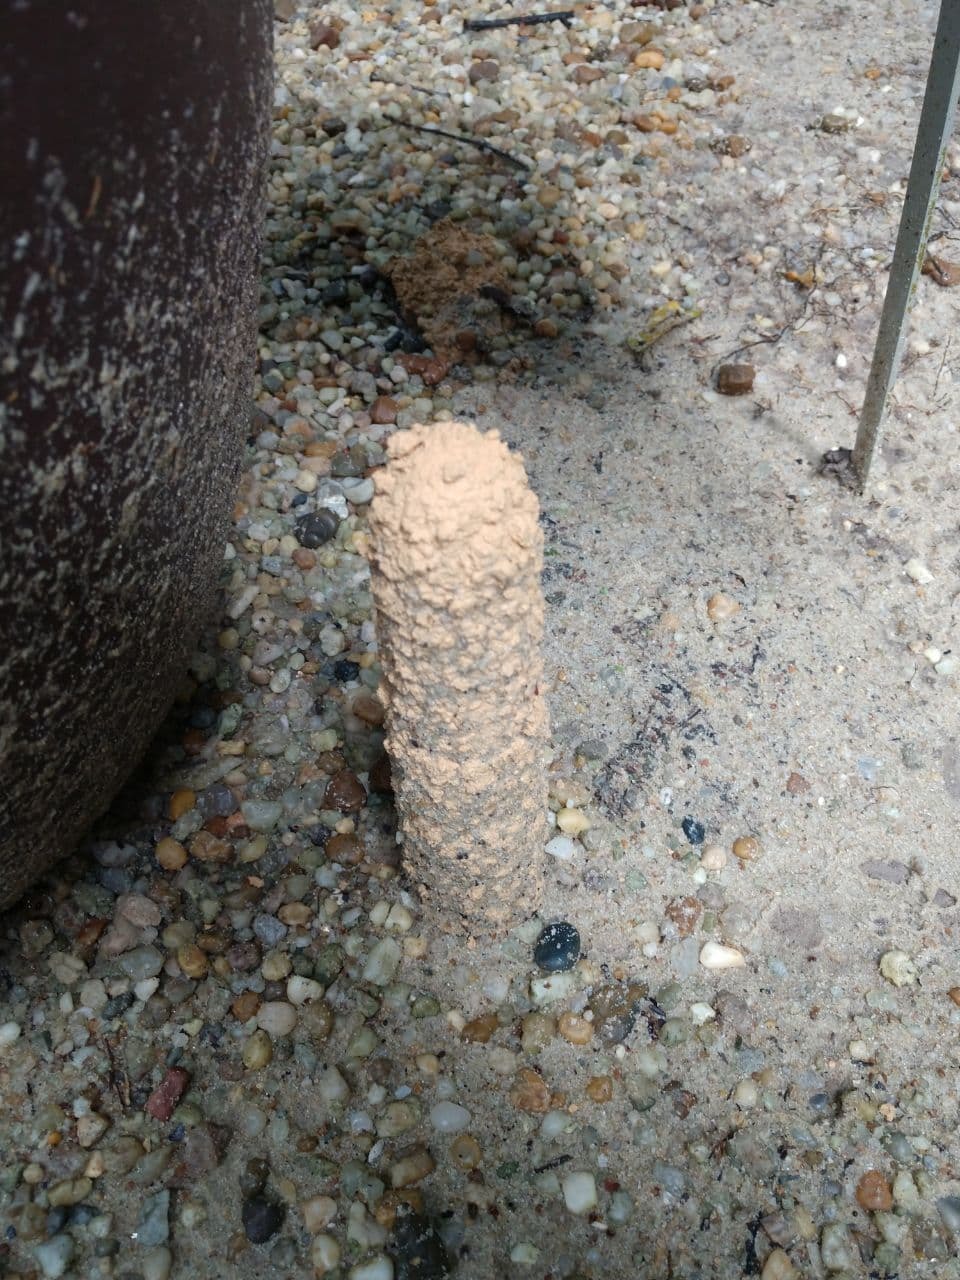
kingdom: Animalia
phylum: Arthropoda
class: Insecta
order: Hemiptera
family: Cicadidae
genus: Guyalna
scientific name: Guyalna chlorogena
